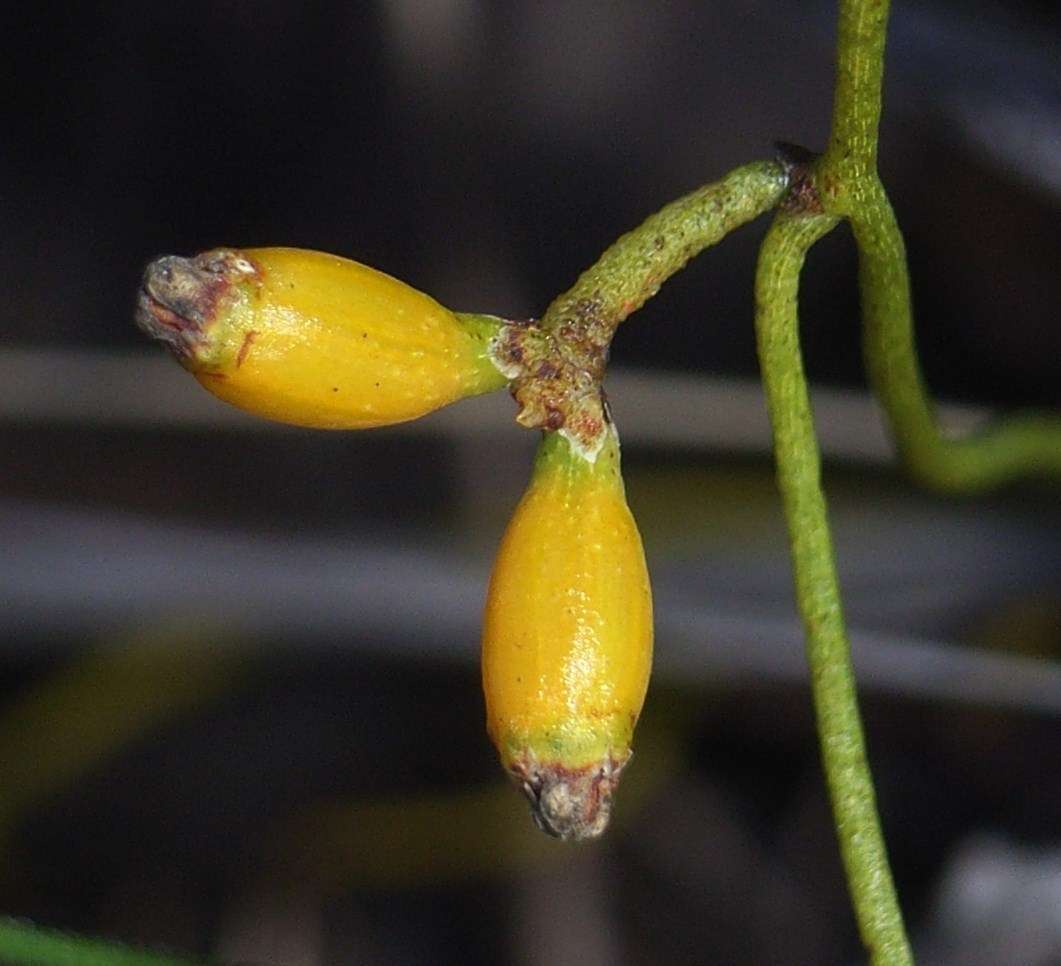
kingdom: Plantae
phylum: Tracheophyta
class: Magnoliopsida
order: Laurales
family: Lauraceae
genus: Cassytha
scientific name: Cassytha glabella
